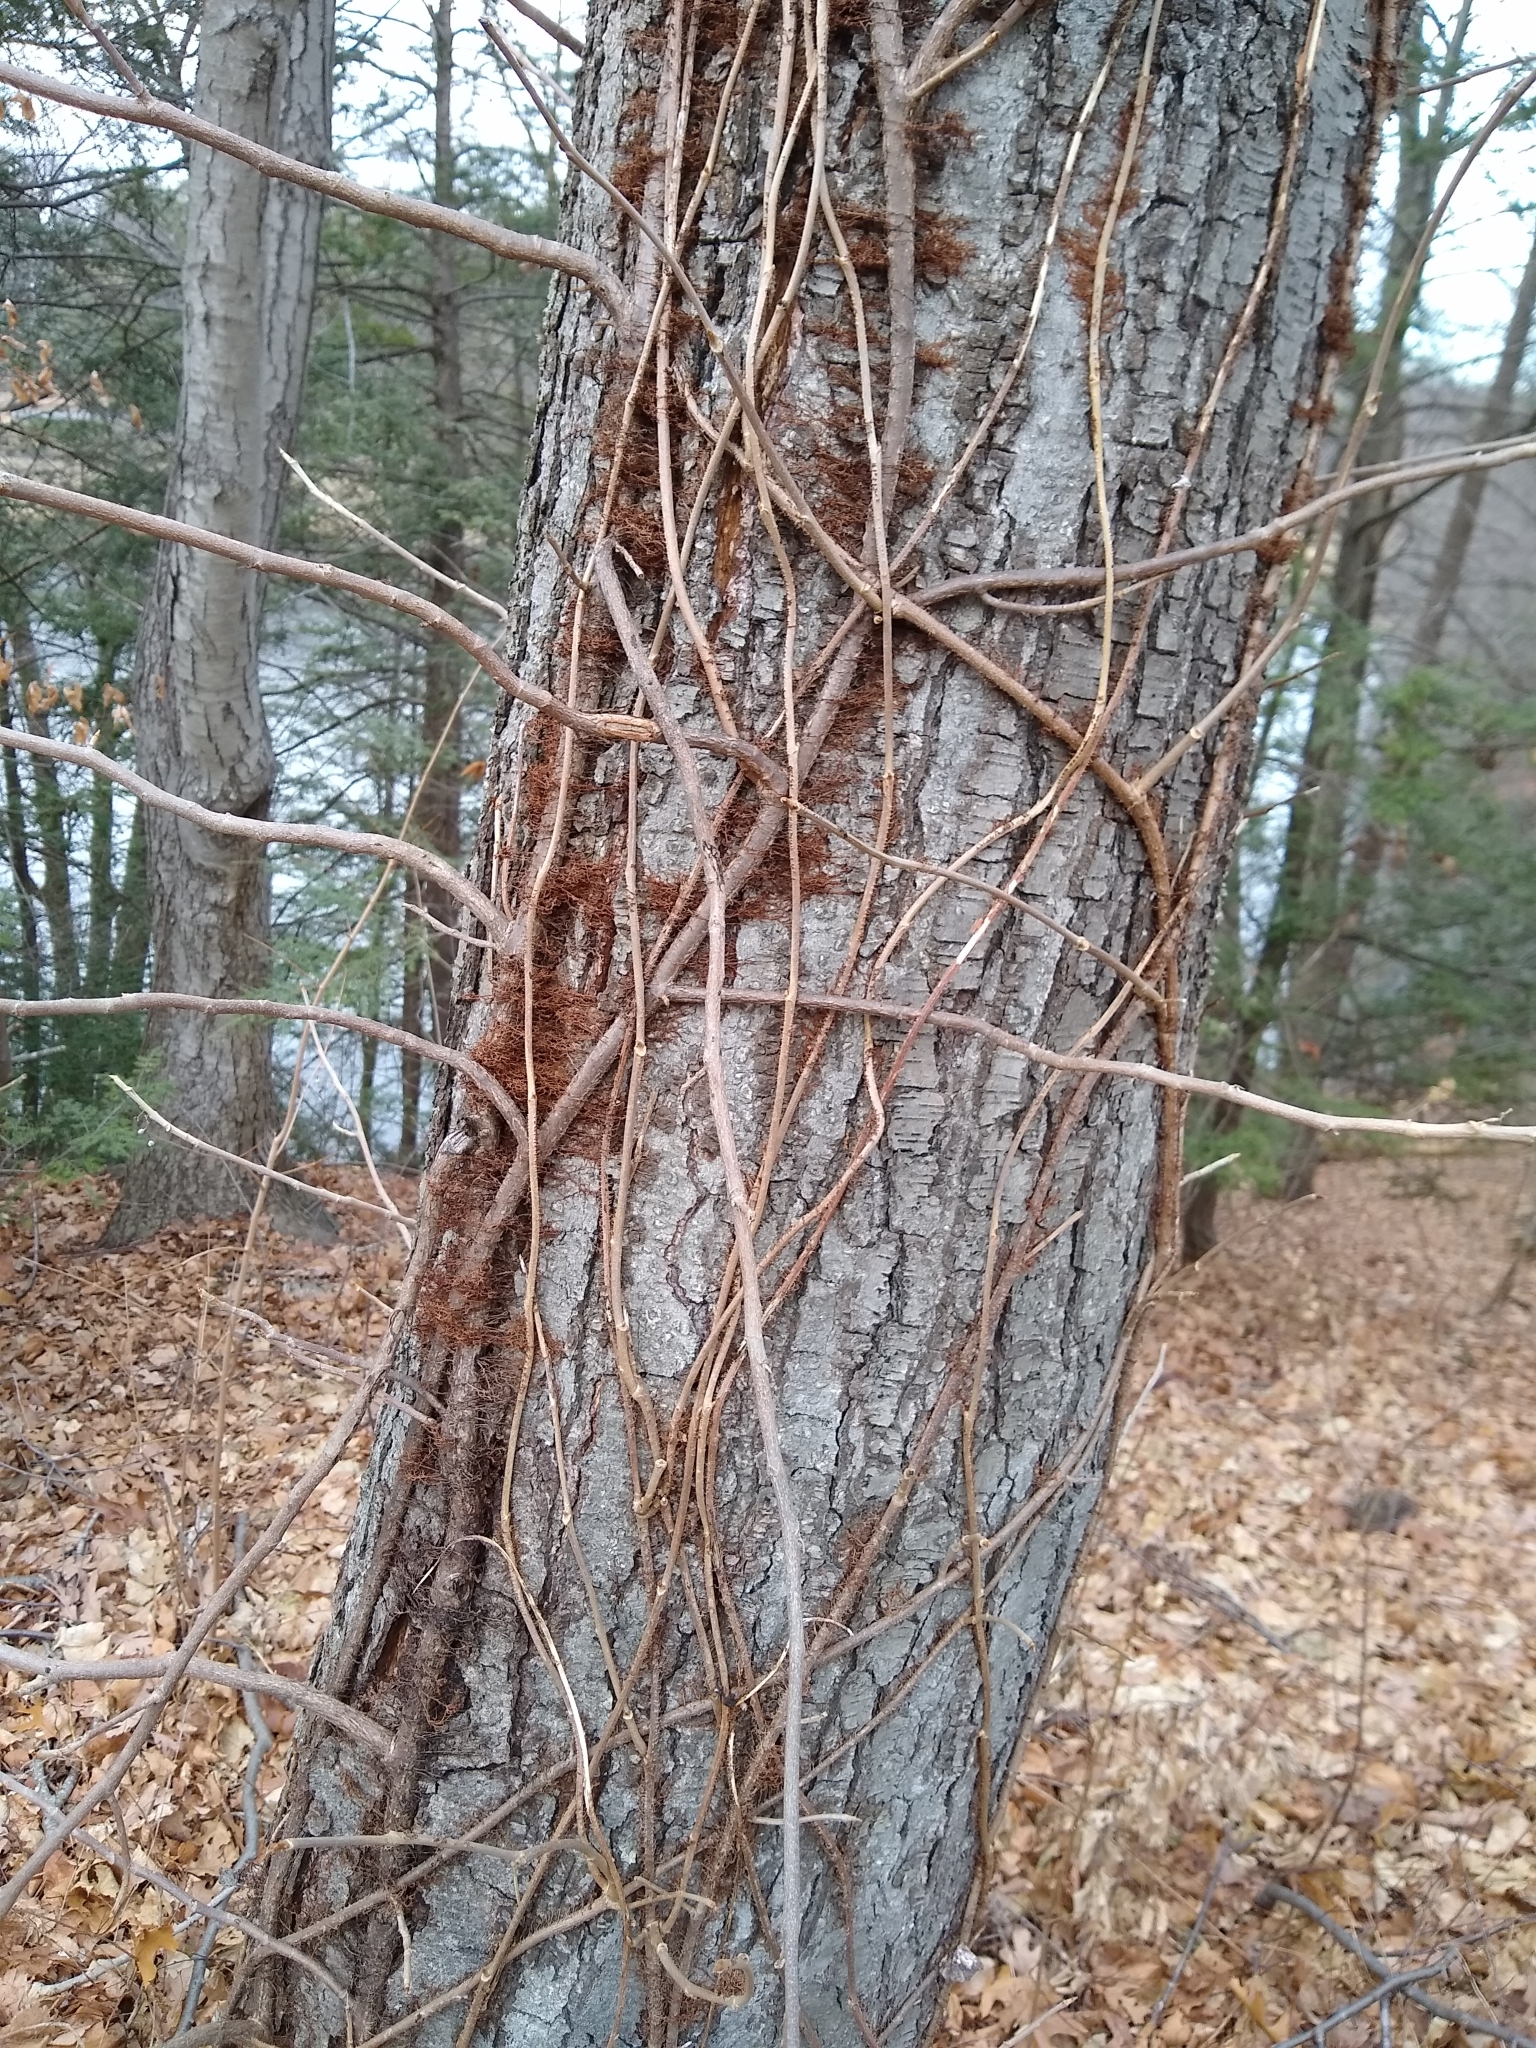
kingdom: Plantae
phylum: Tracheophyta
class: Magnoliopsida
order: Sapindales
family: Anacardiaceae
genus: Toxicodendron
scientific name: Toxicodendron radicans
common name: Poison ivy
